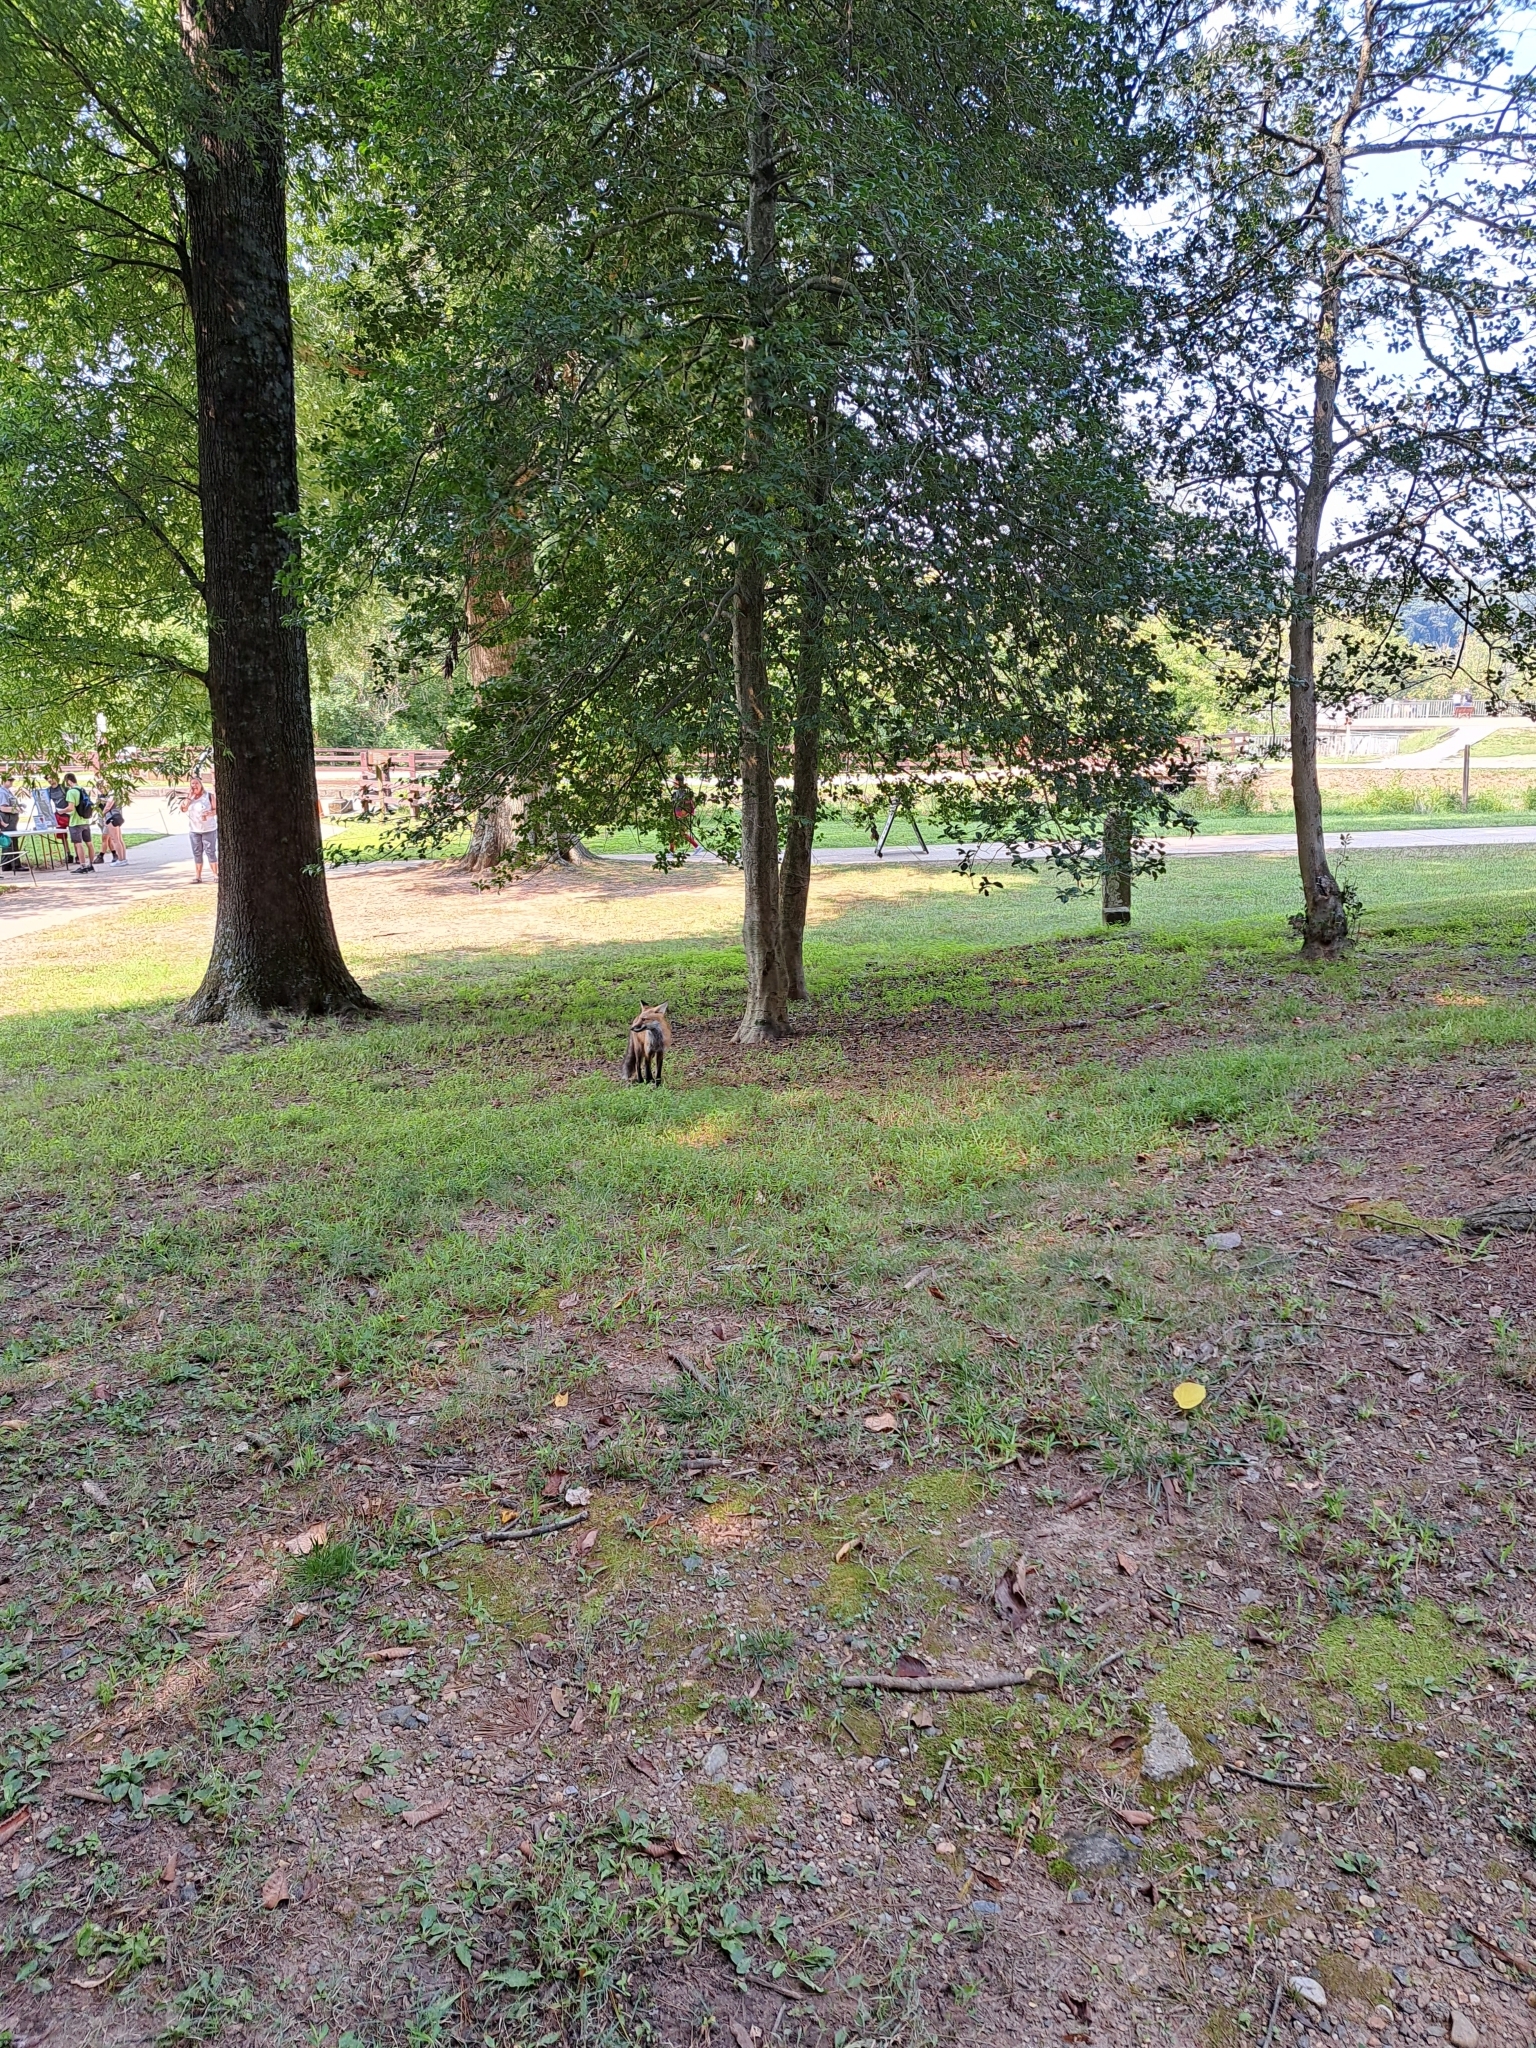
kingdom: Animalia
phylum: Chordata
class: Mammalia
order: Carnivora
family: Canidae
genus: Vulpes
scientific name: Vulpes vulpes
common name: Red fox
